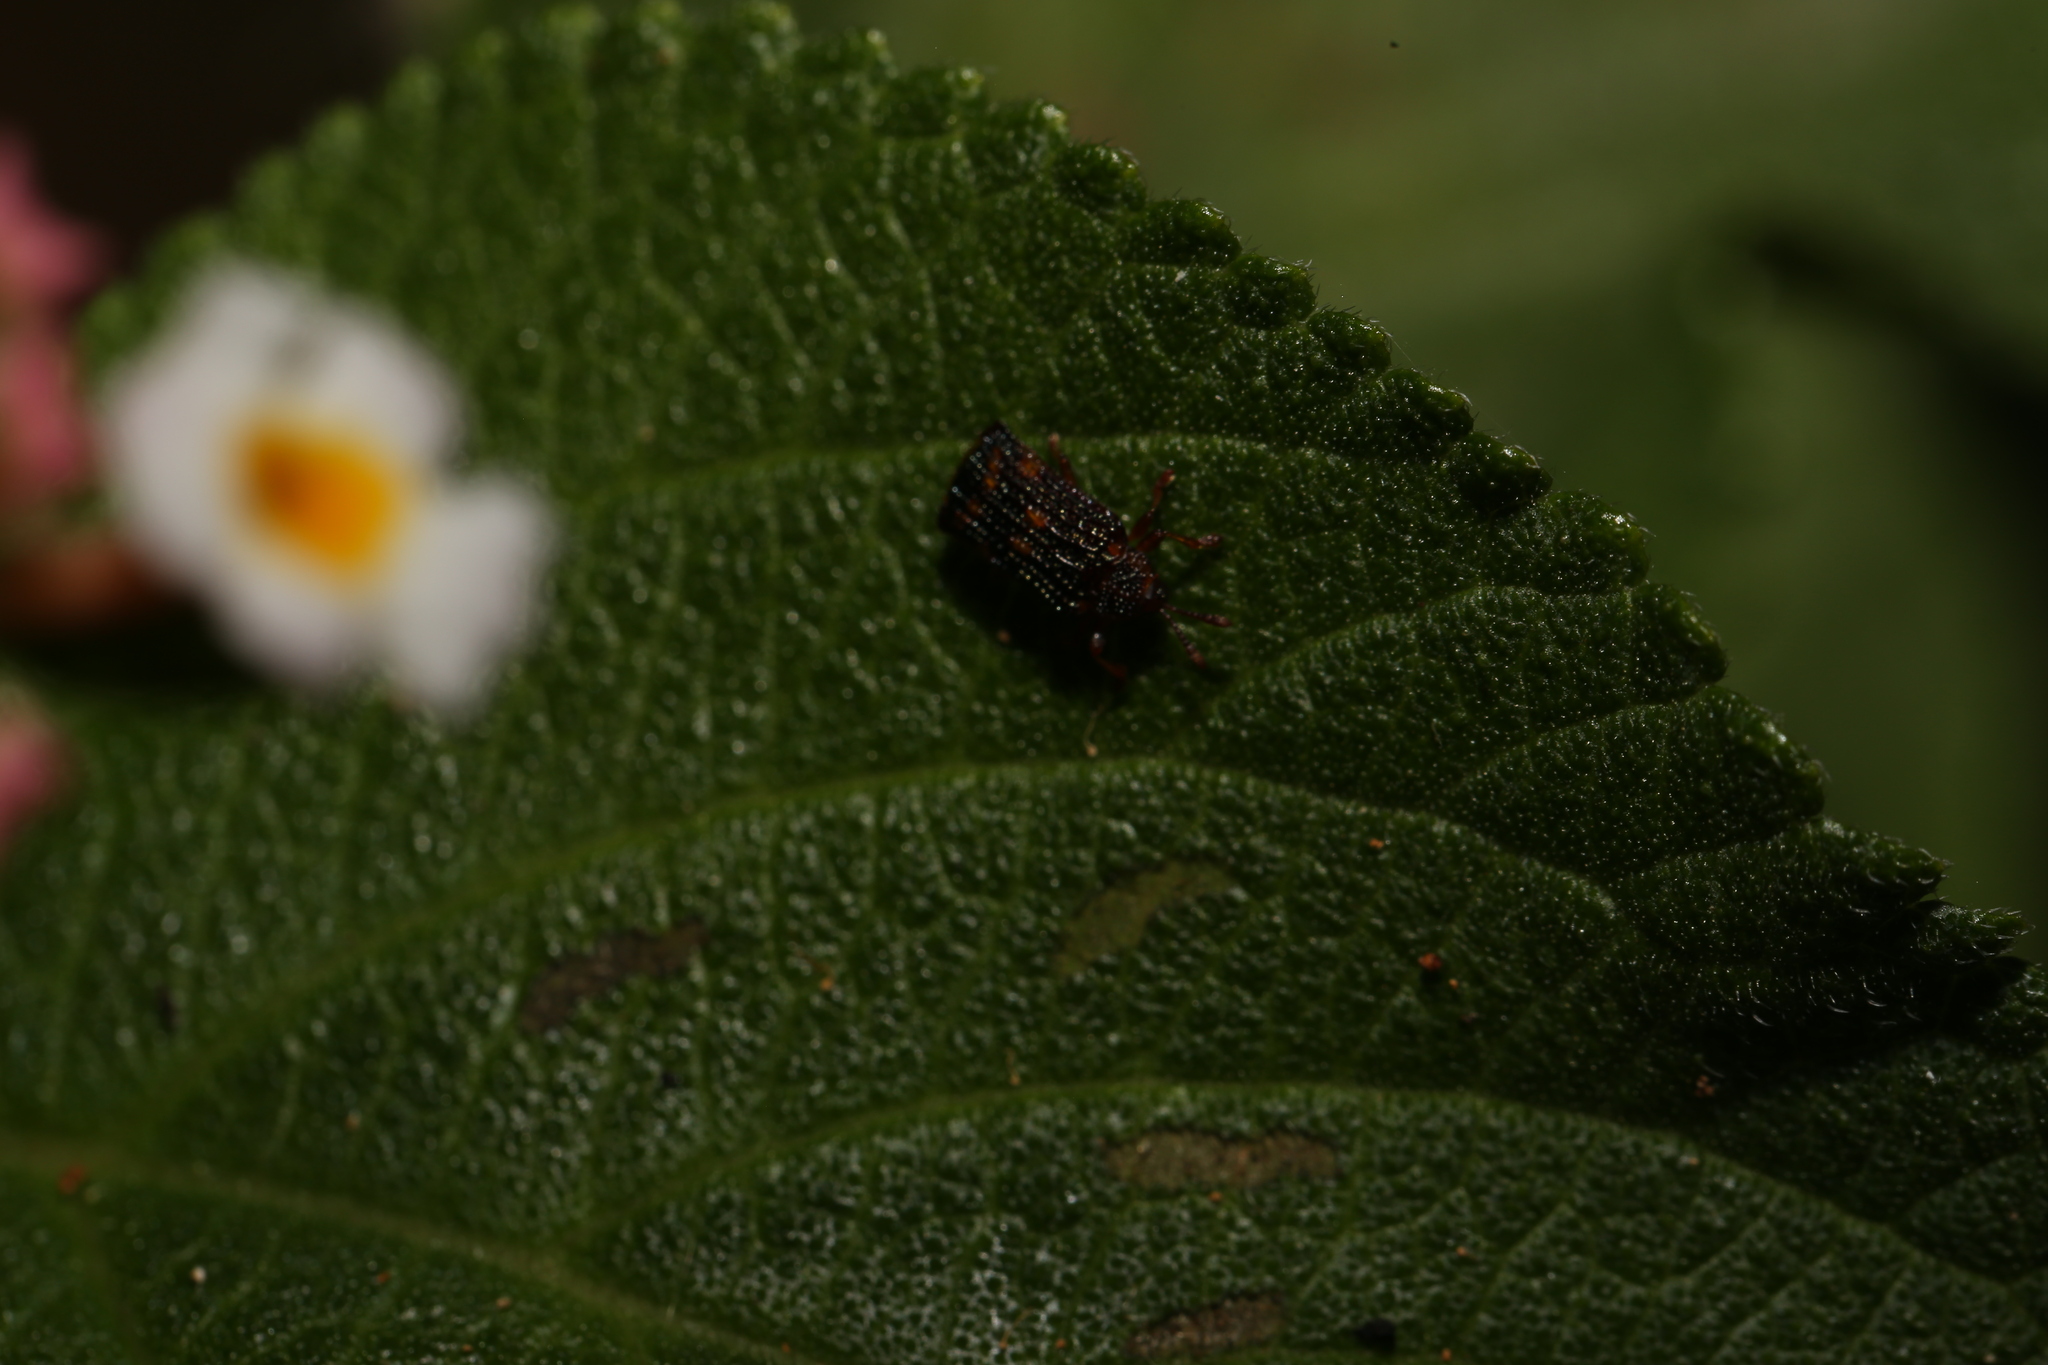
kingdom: Animalia
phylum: Arthropoda
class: Insecta
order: Coleoptera
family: Chrysomelidae
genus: Uroplata
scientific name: Uroplata girardi
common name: Lantana leafminer
